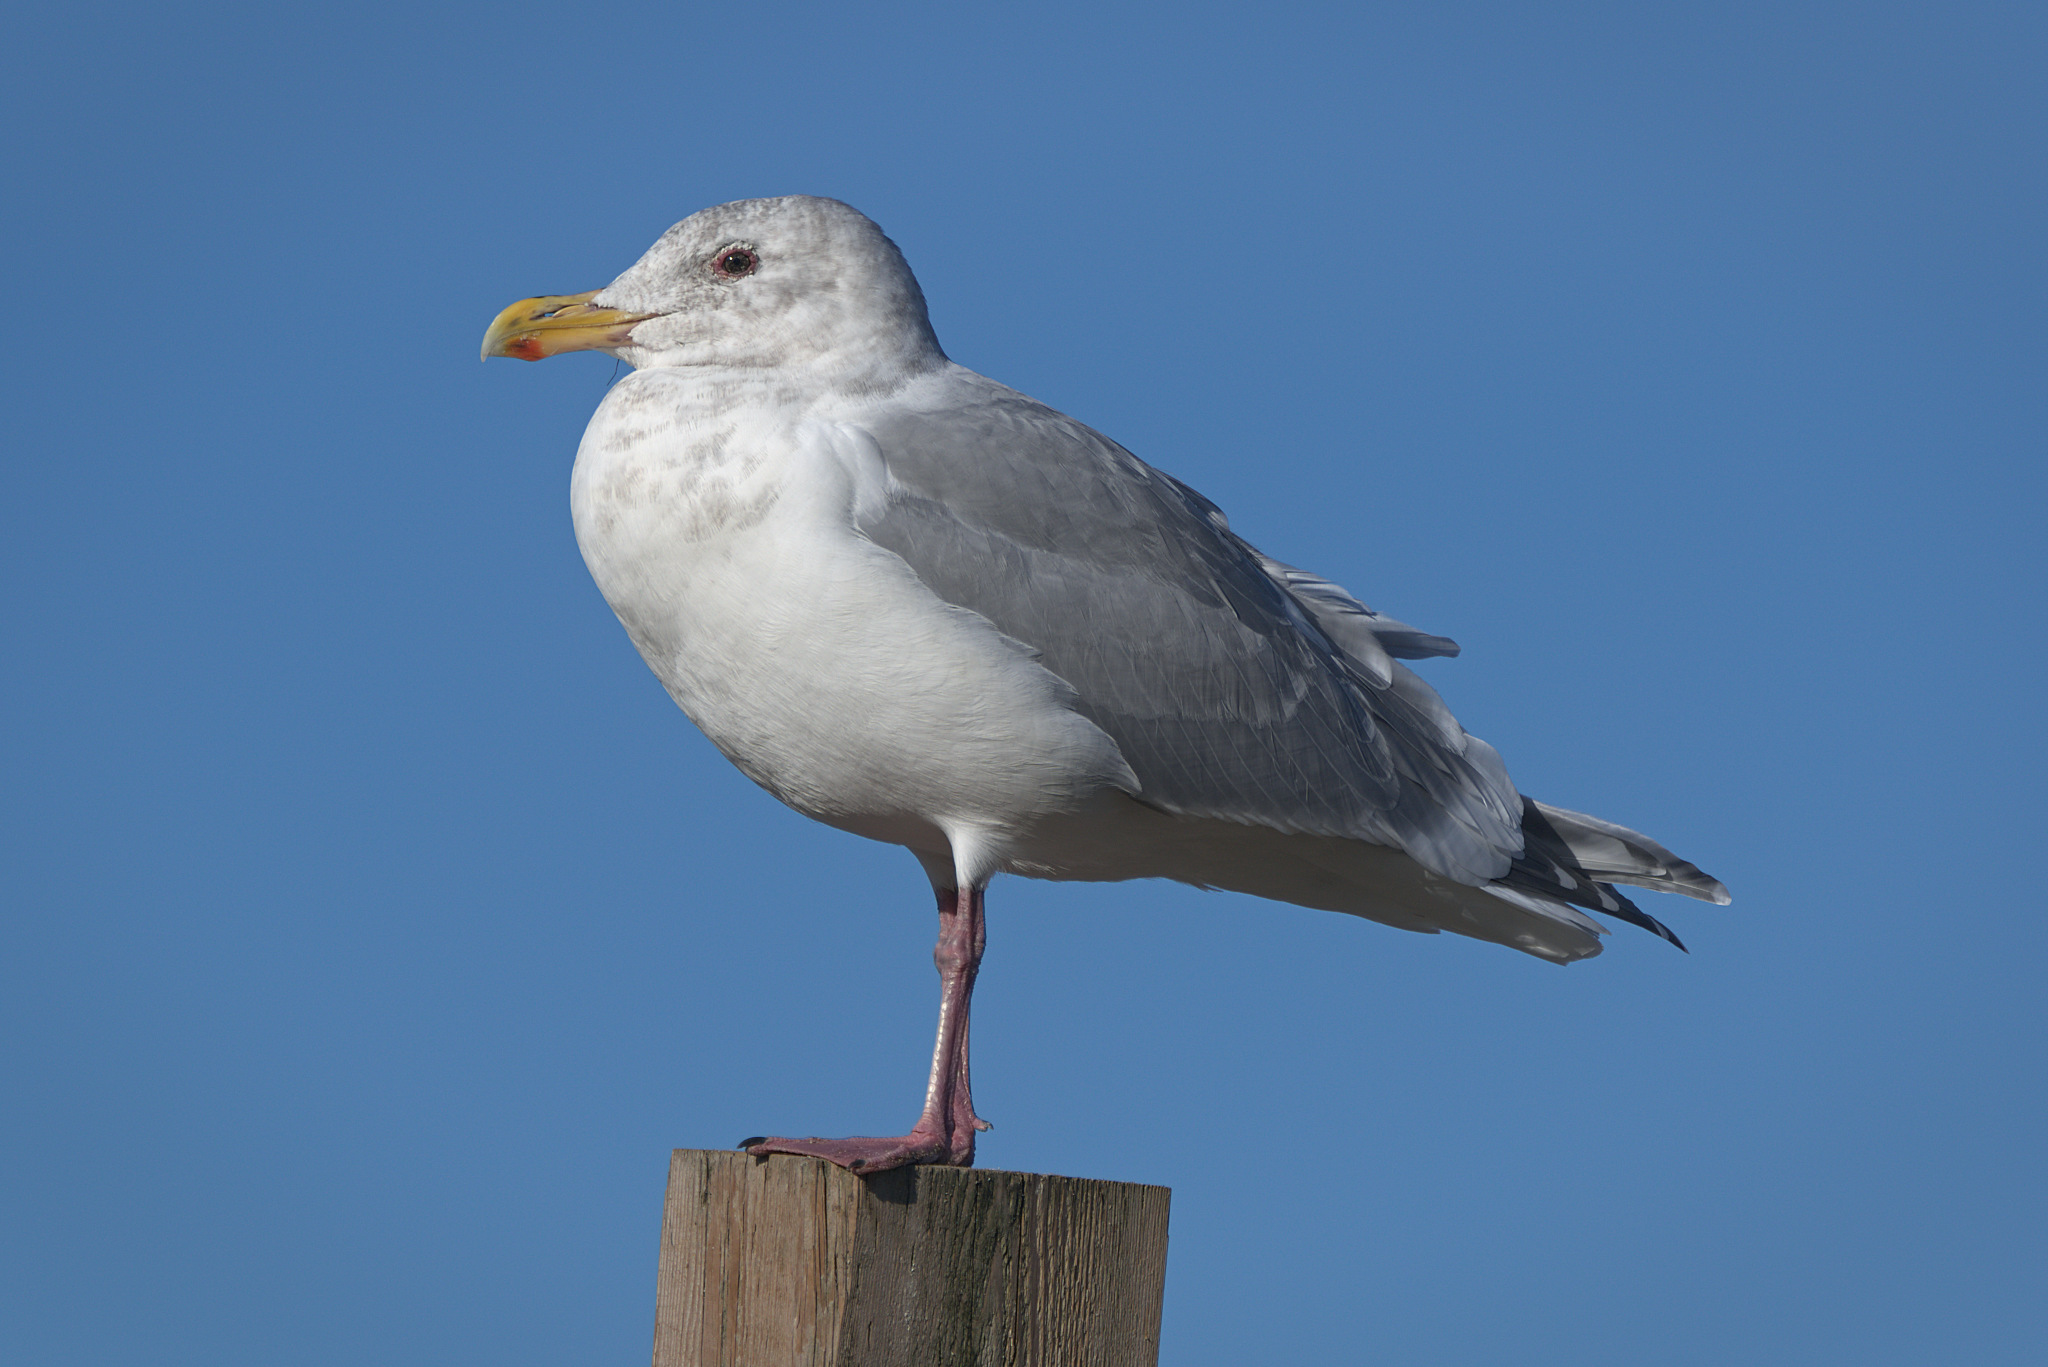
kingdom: Animalia
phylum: Chordata
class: Aves
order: Charadriiformes
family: Laridae
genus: Larus
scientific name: Larus
